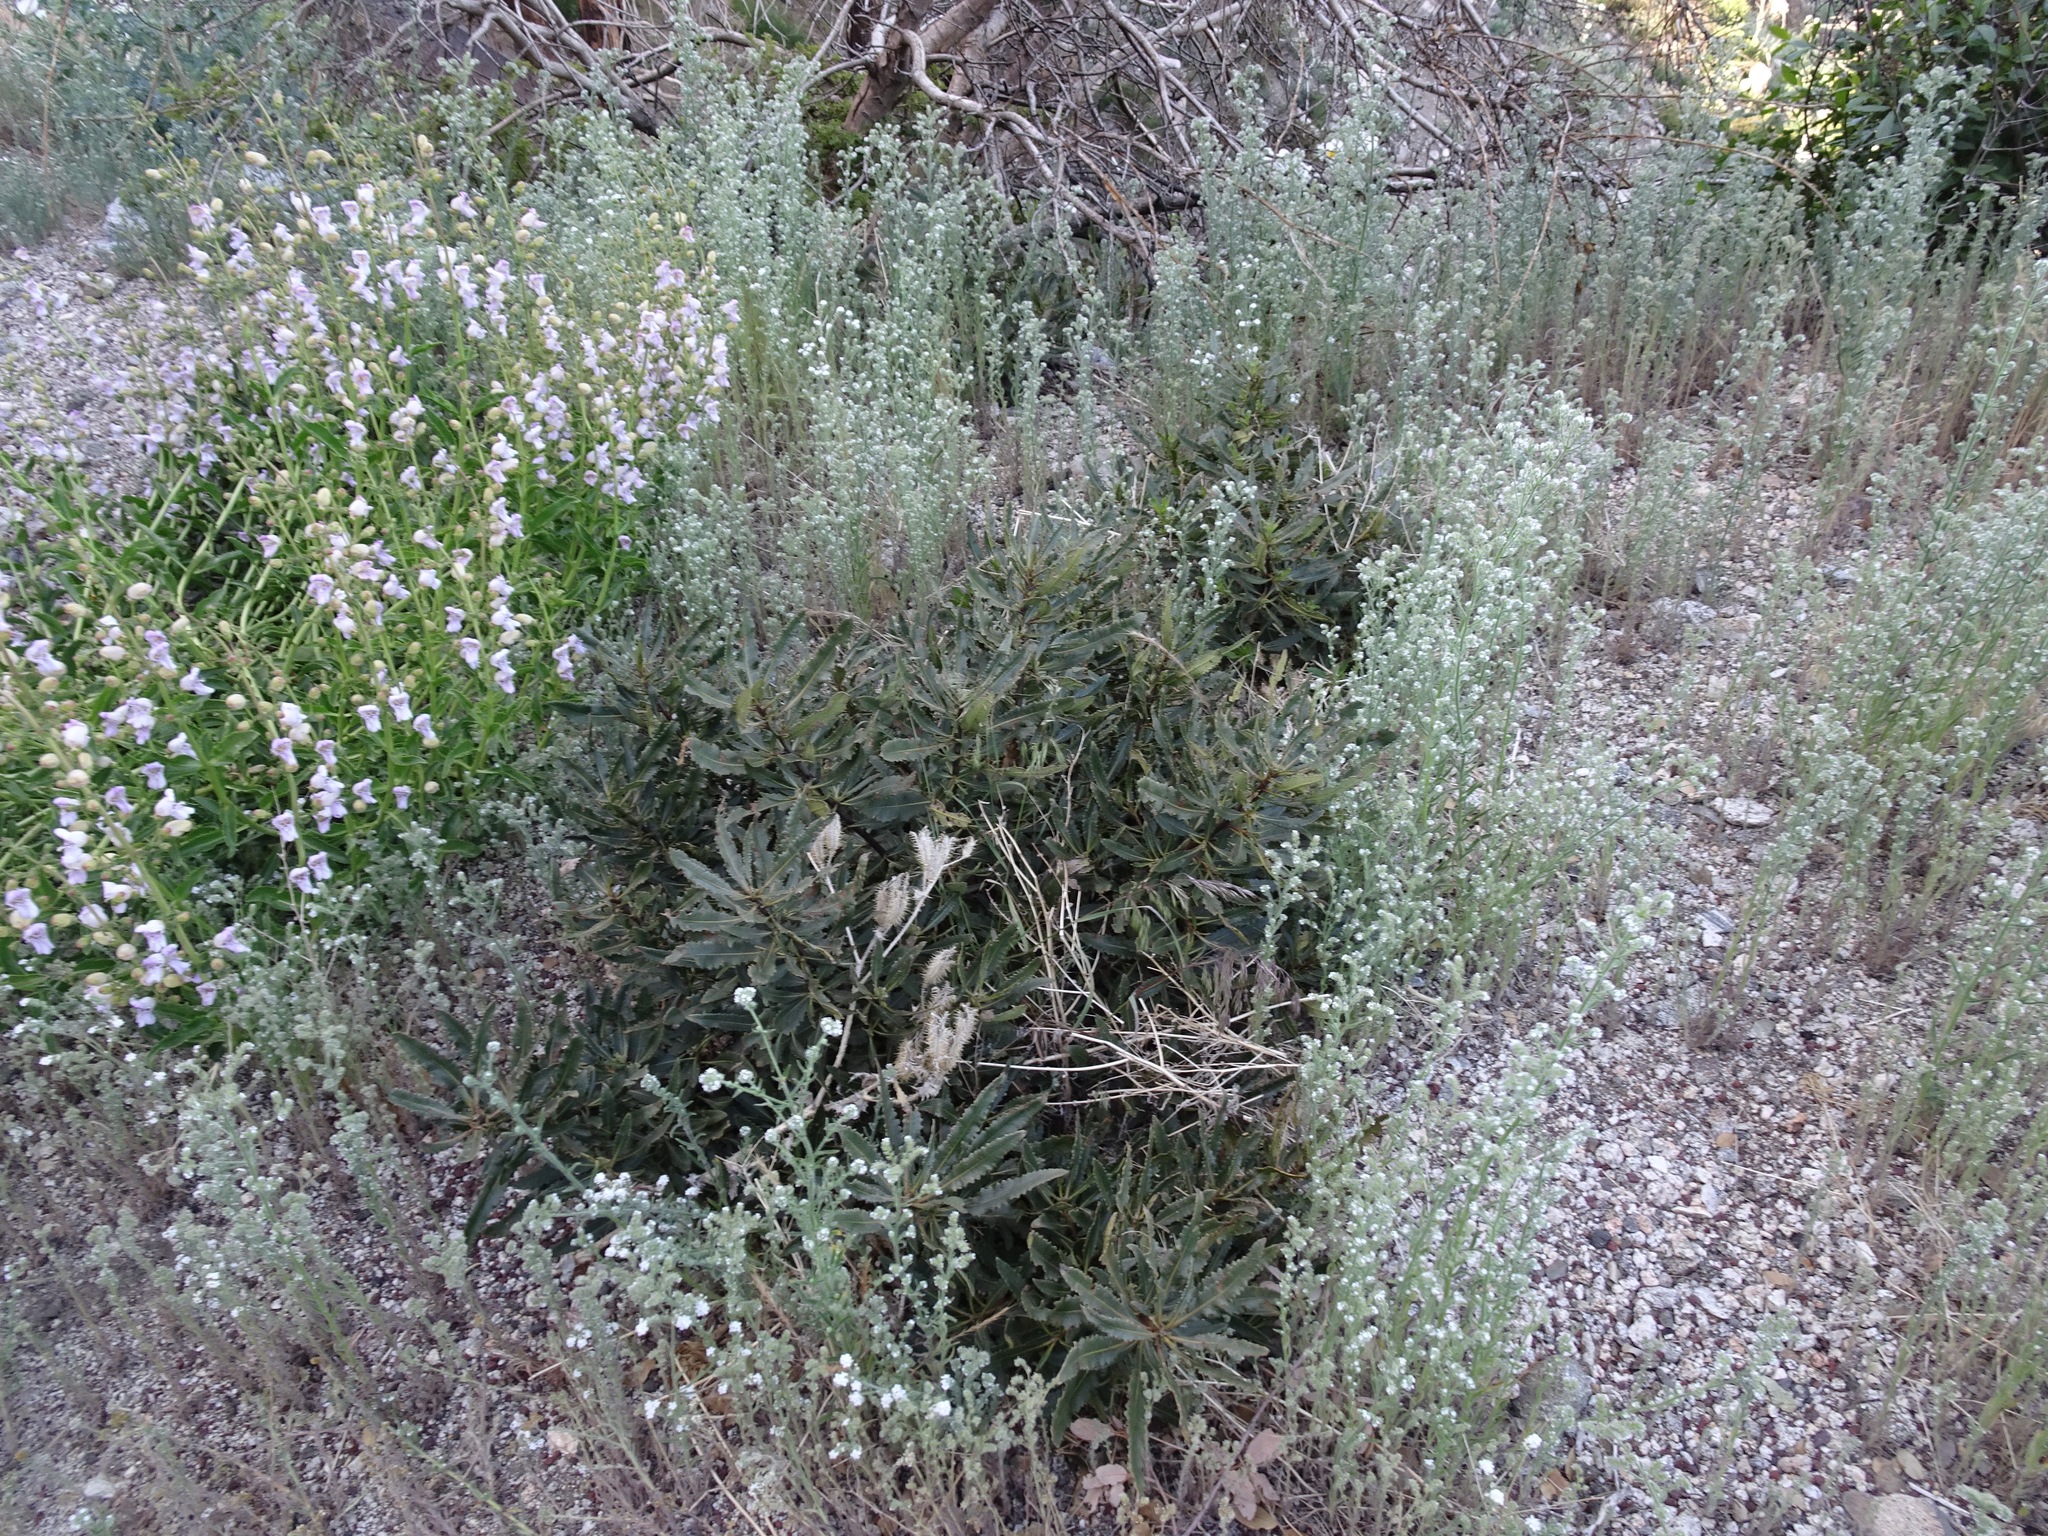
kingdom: Plantae
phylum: Tracheophyta
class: Magnoliopsida
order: Boraginales
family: Namaceae
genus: Eriodictyon
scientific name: Eriodictyon trichocalyx
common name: Hairy yerba-santa
